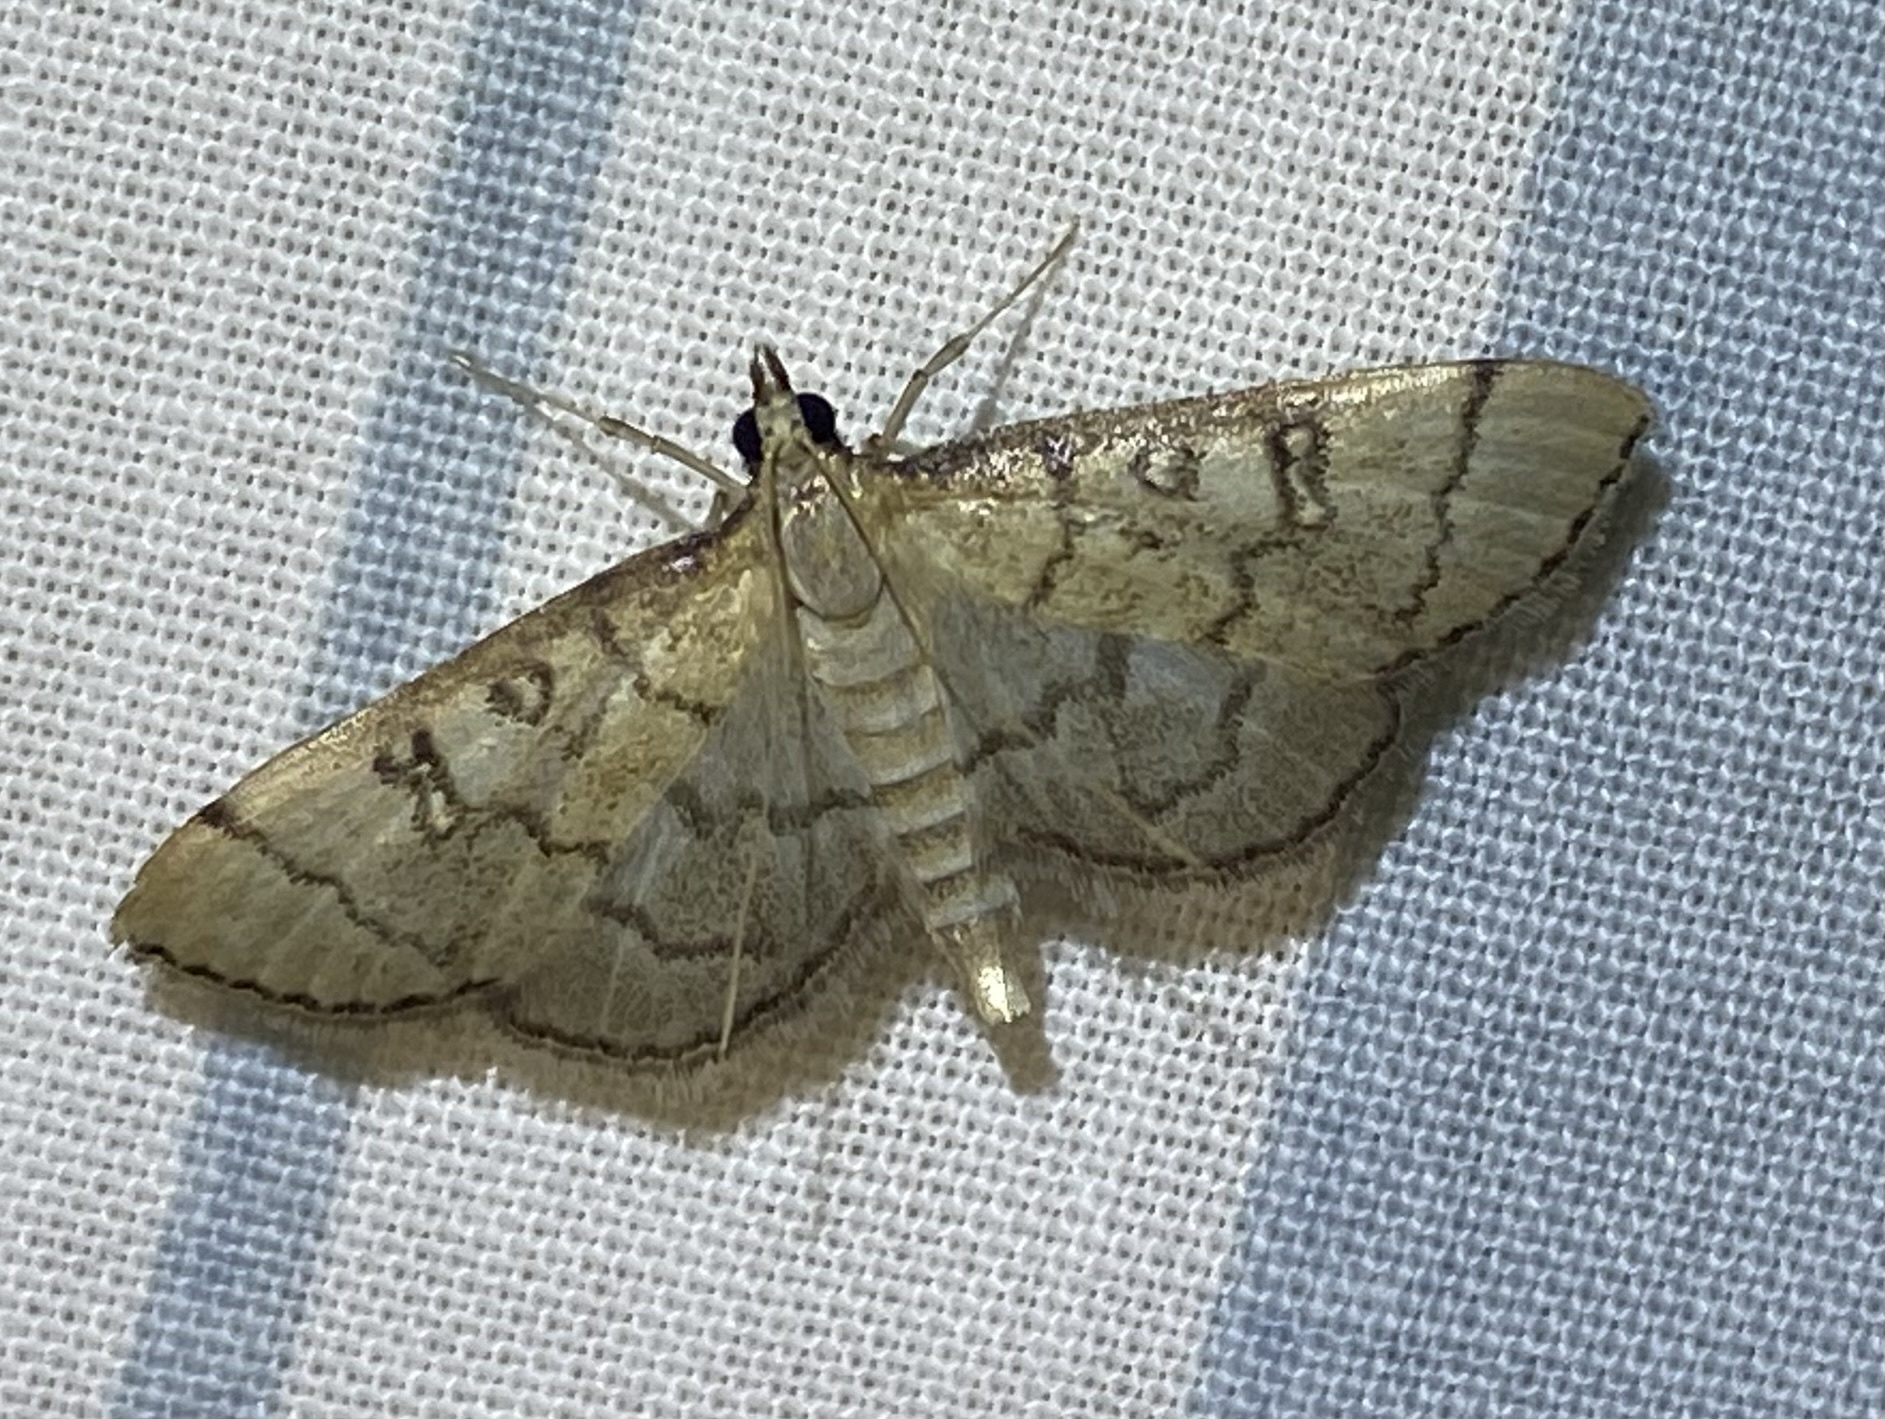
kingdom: Animalia
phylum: Arthropoda
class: Insecta
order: Lepidoptera
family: Crambidae
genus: Lamprosema
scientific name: Lamprosema Blepharomastix ranalis
